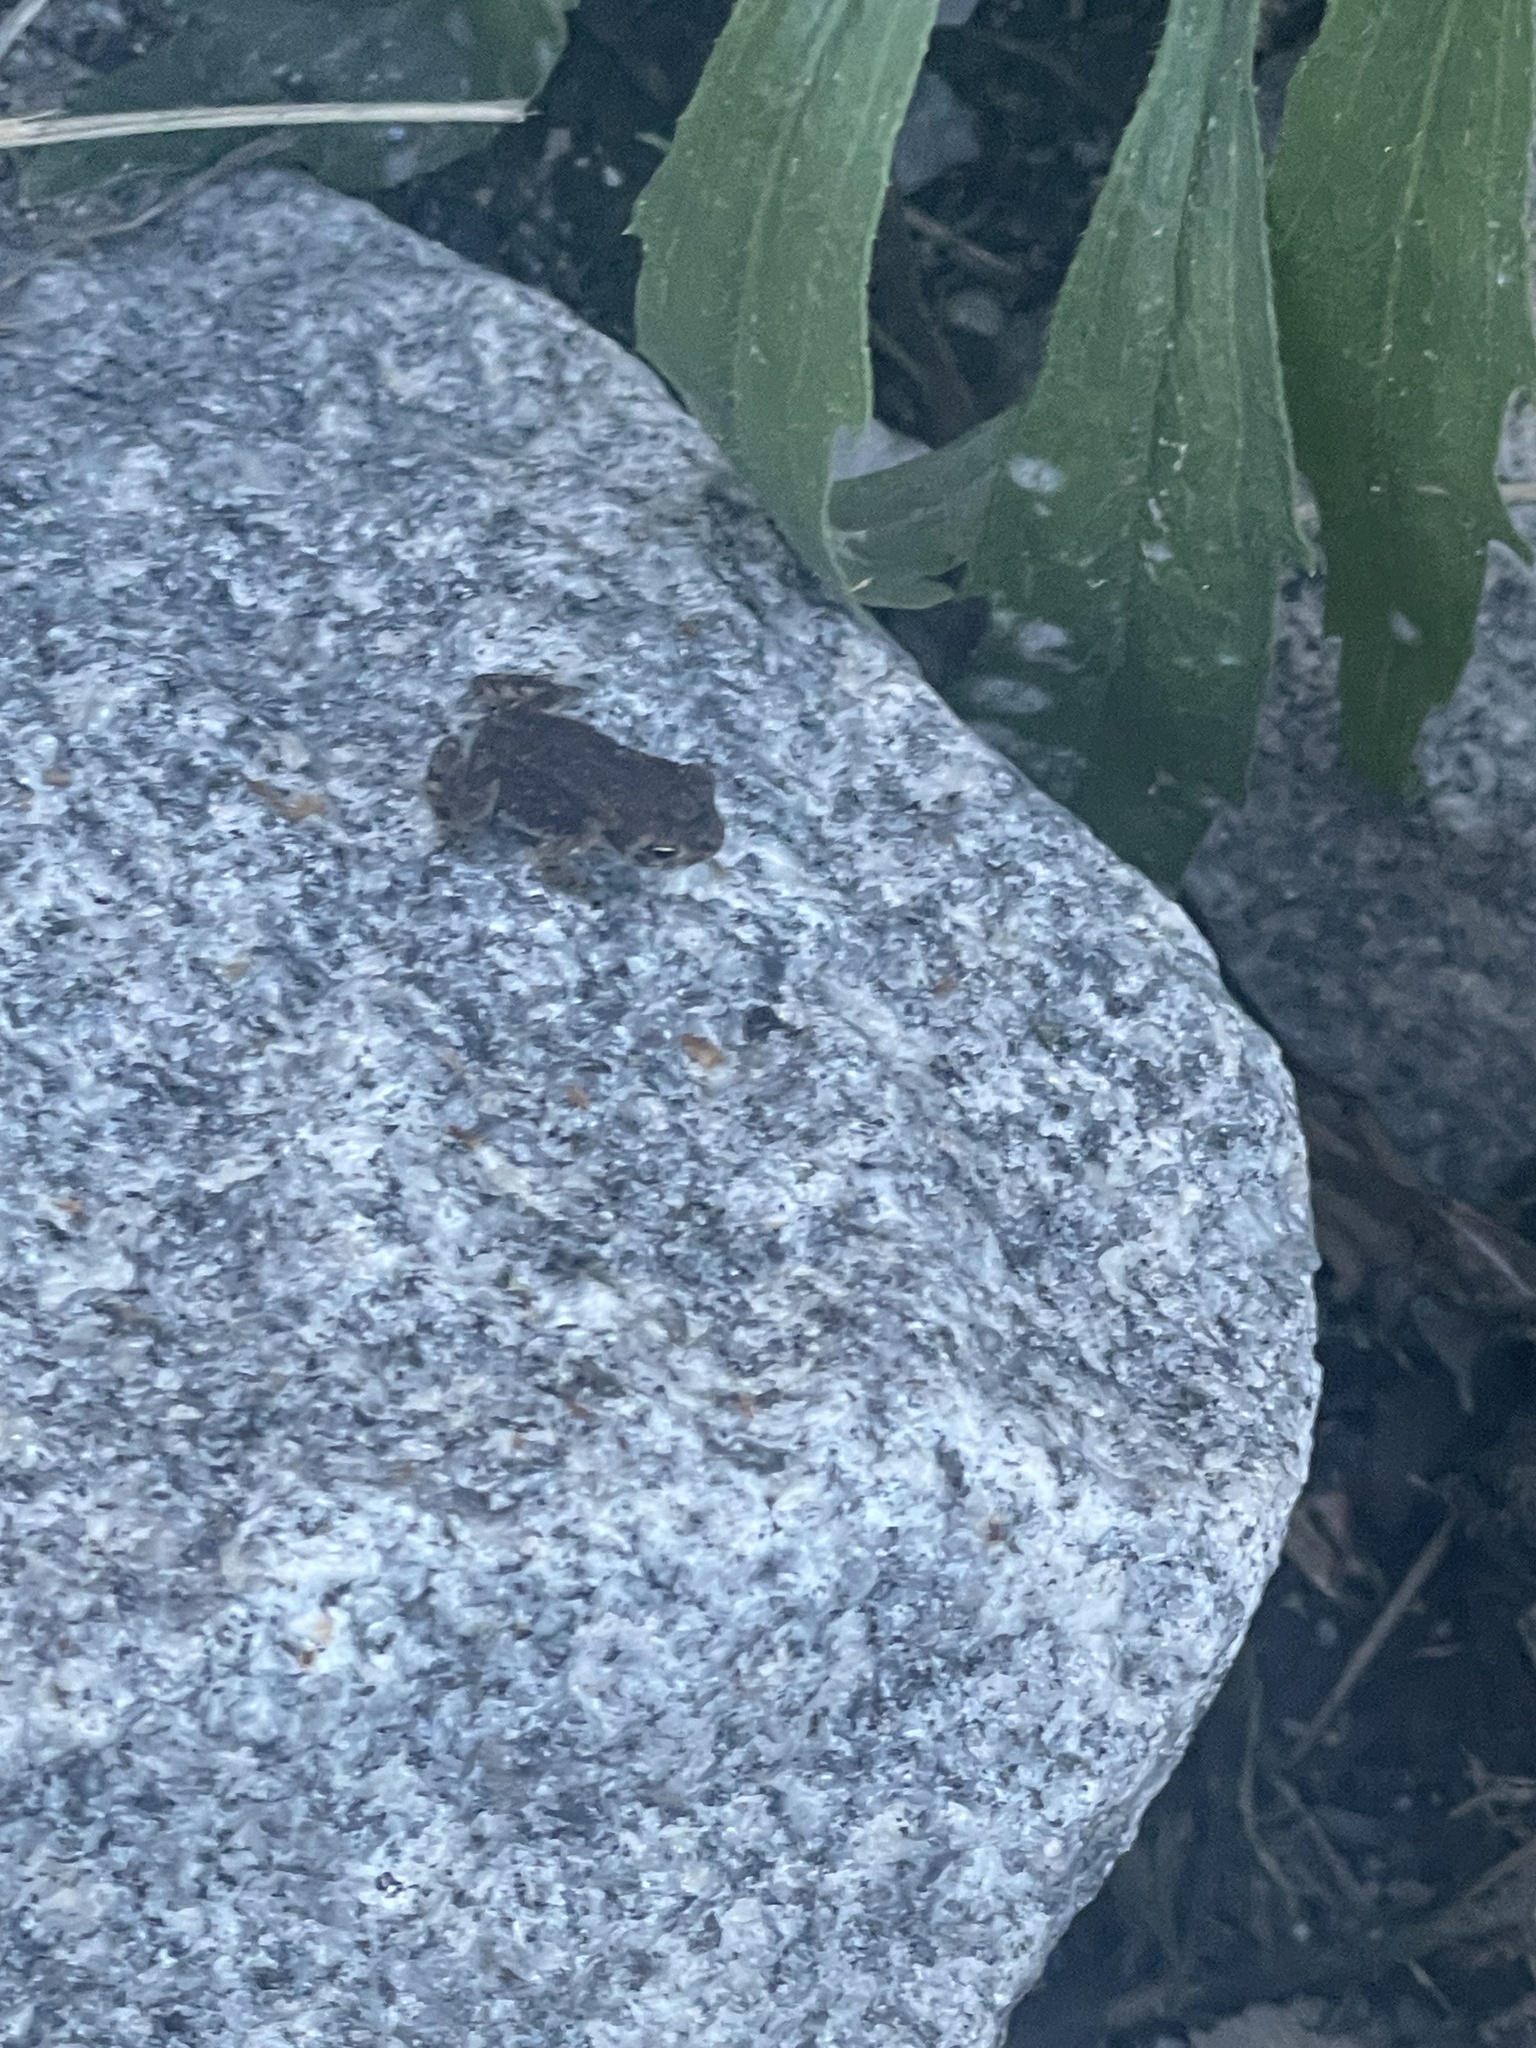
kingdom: Animalia
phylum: Chordata
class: Amphibia
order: Anura
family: Bufonidae
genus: Anaxyrus
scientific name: Anaxyrus fowleri
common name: Fowler's toad
